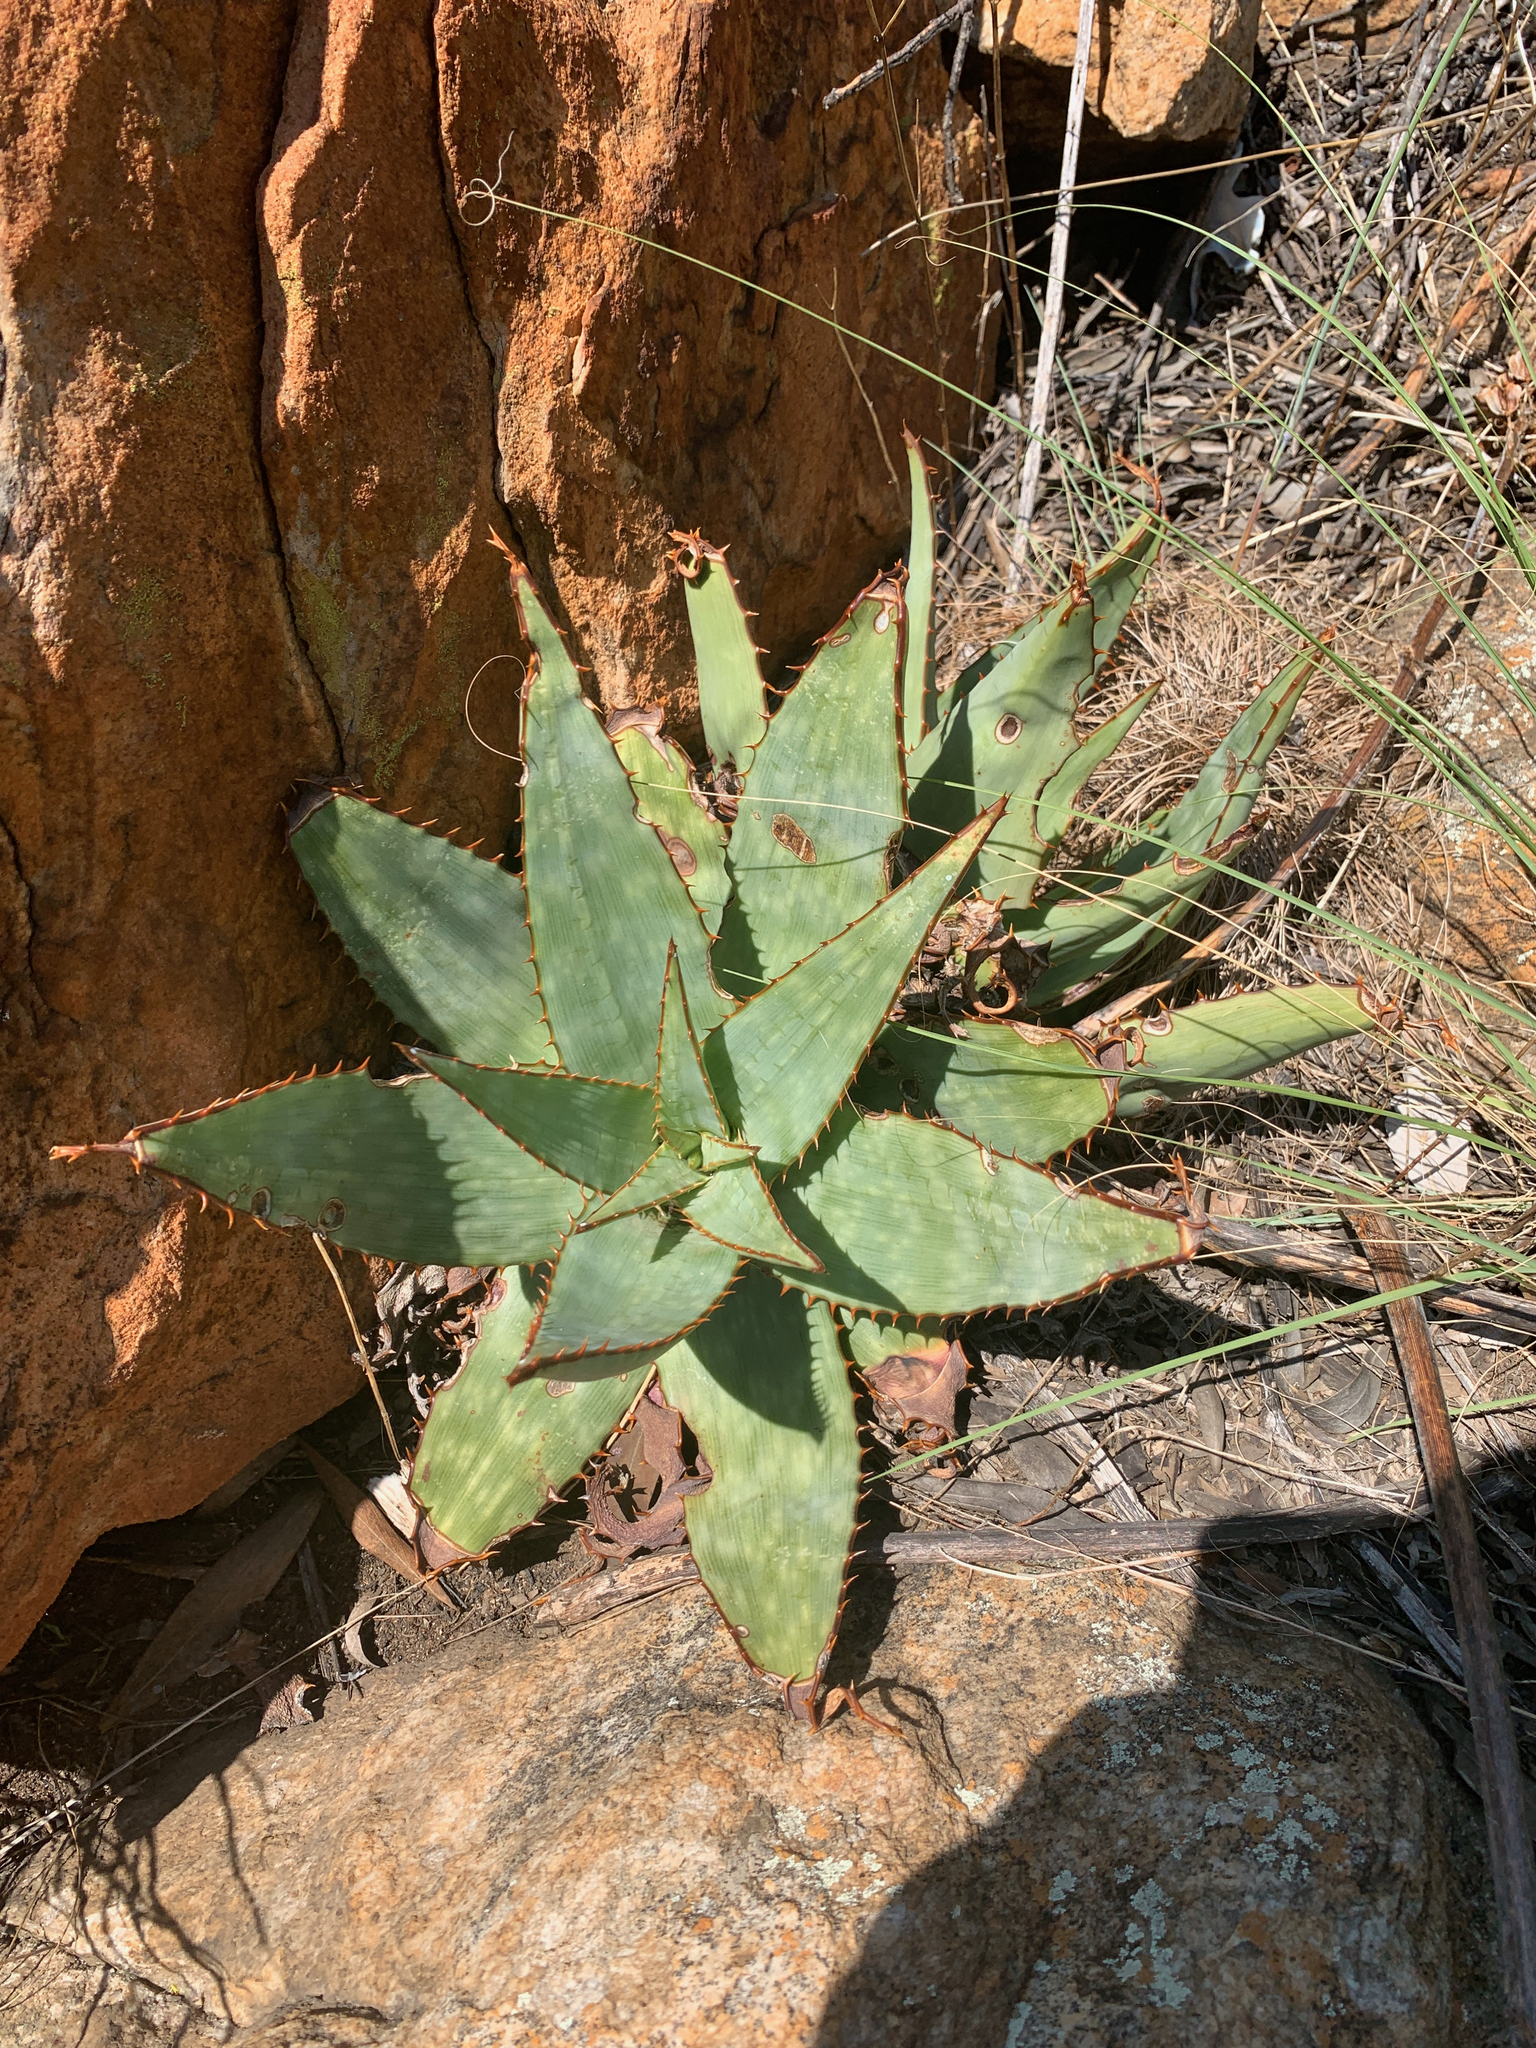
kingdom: Plantae
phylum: Tracheophyta
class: Liliopsida
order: Asparagales
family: Asphodelaceae
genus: Aloe
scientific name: Aloe davyana
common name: Spotted aloe
